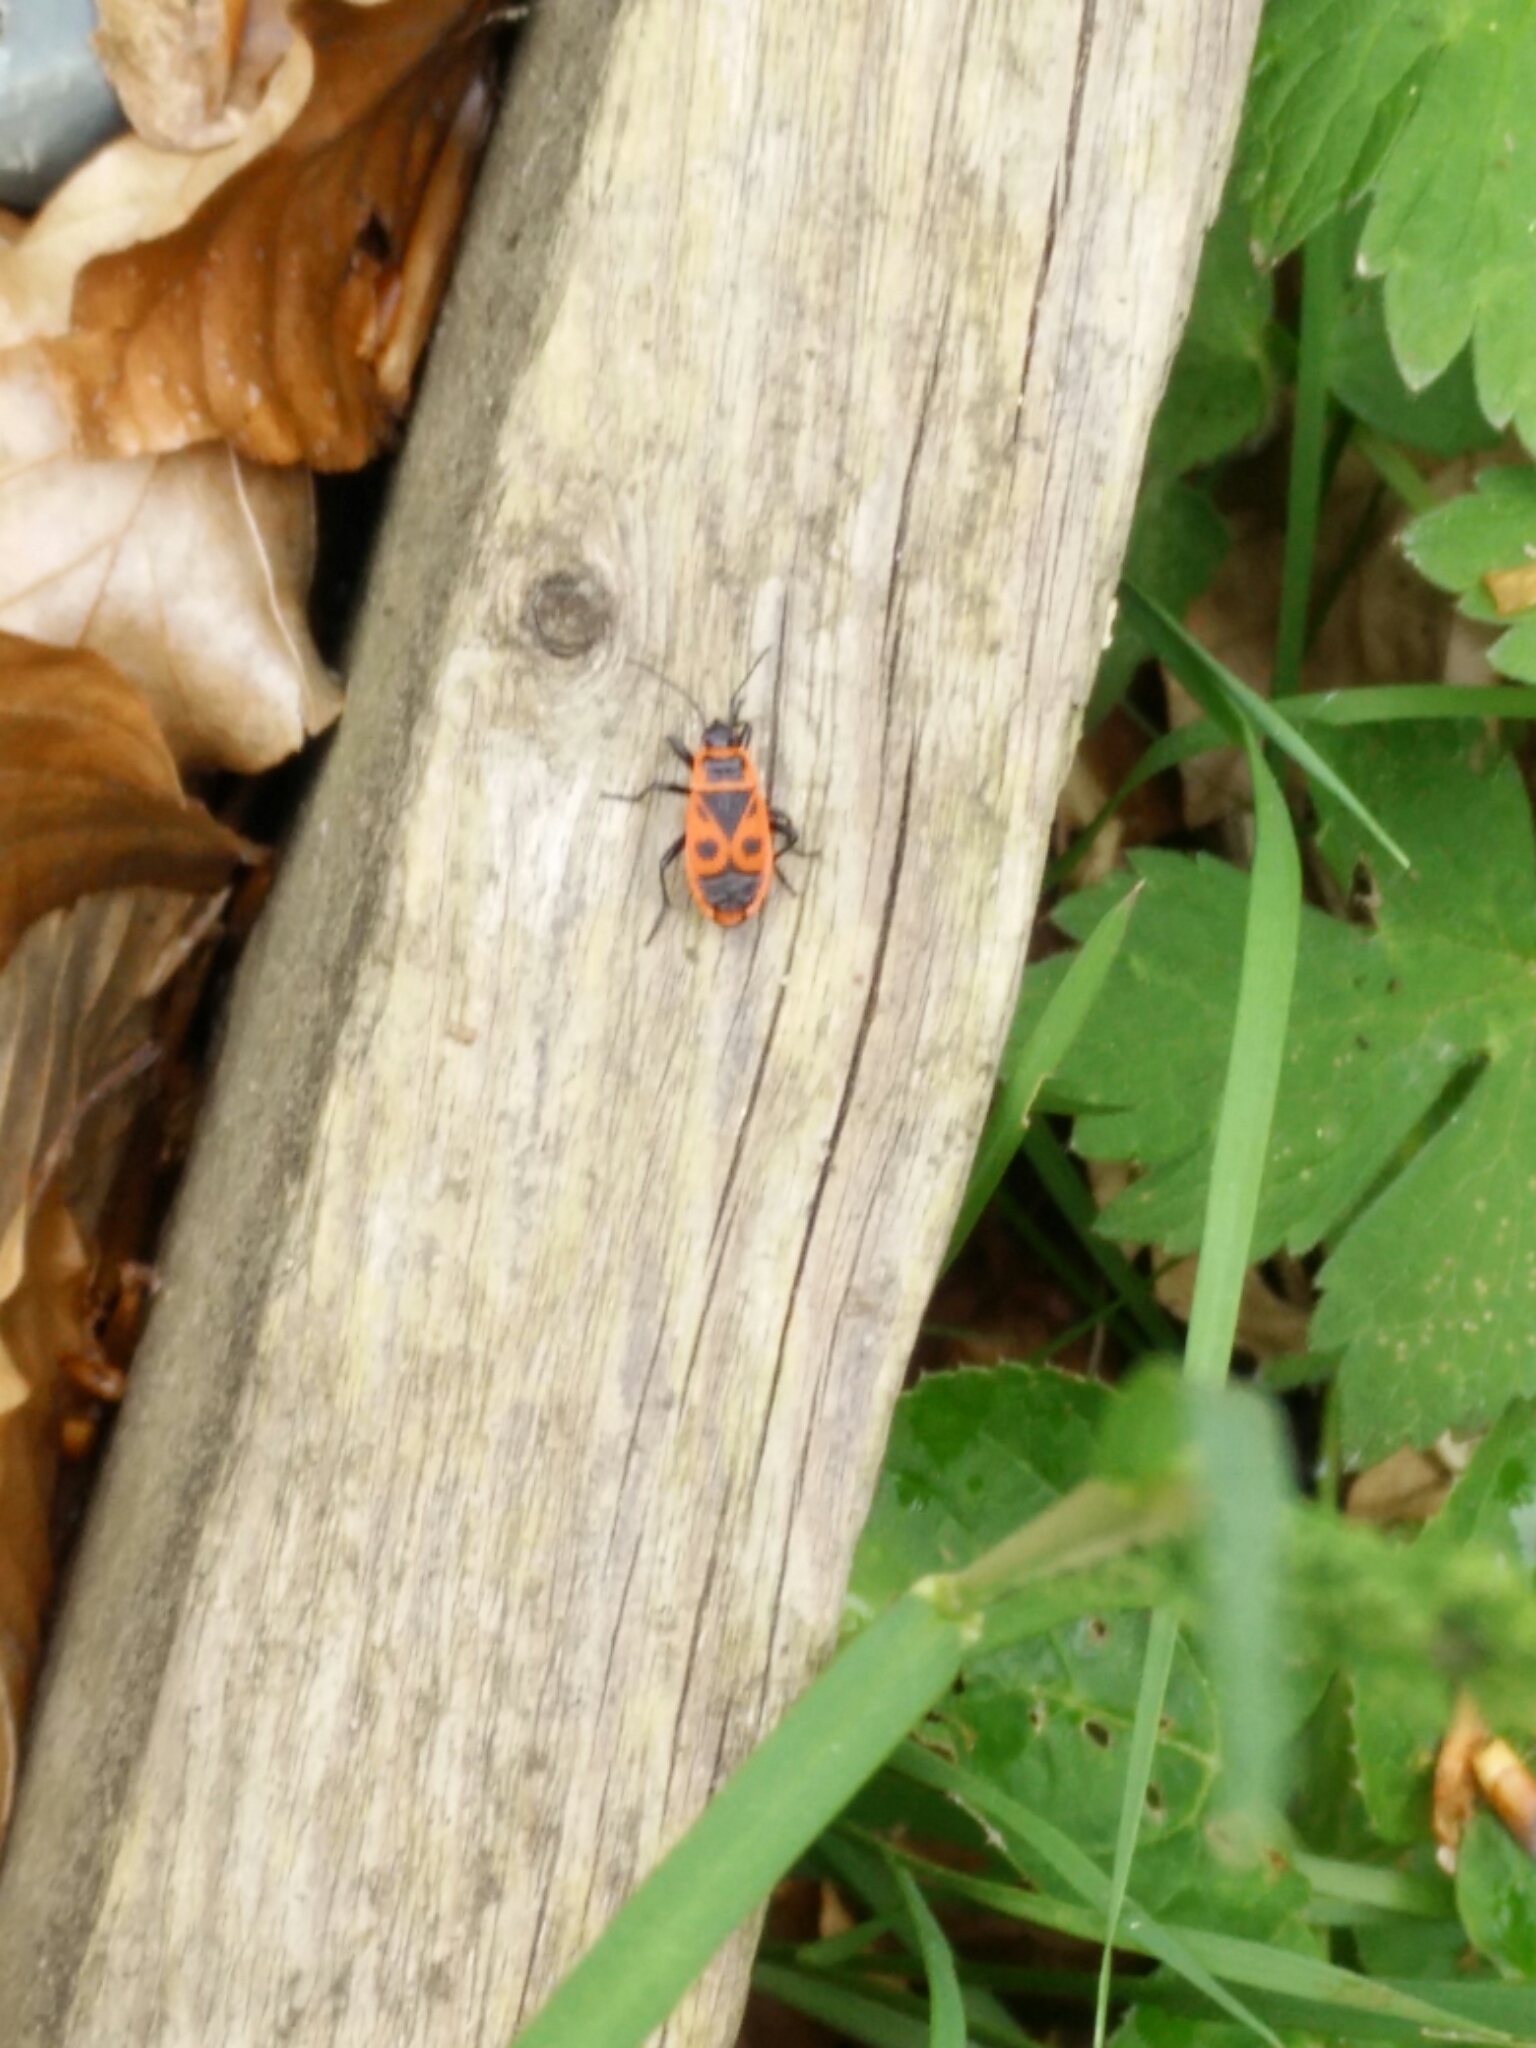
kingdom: Animalia
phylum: Arthropoda
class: Insecta
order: Hemiptera
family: Pyrrhocoridae
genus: Pyrrhocoris
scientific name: Pyrrhocoris apterus
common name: Firebug
